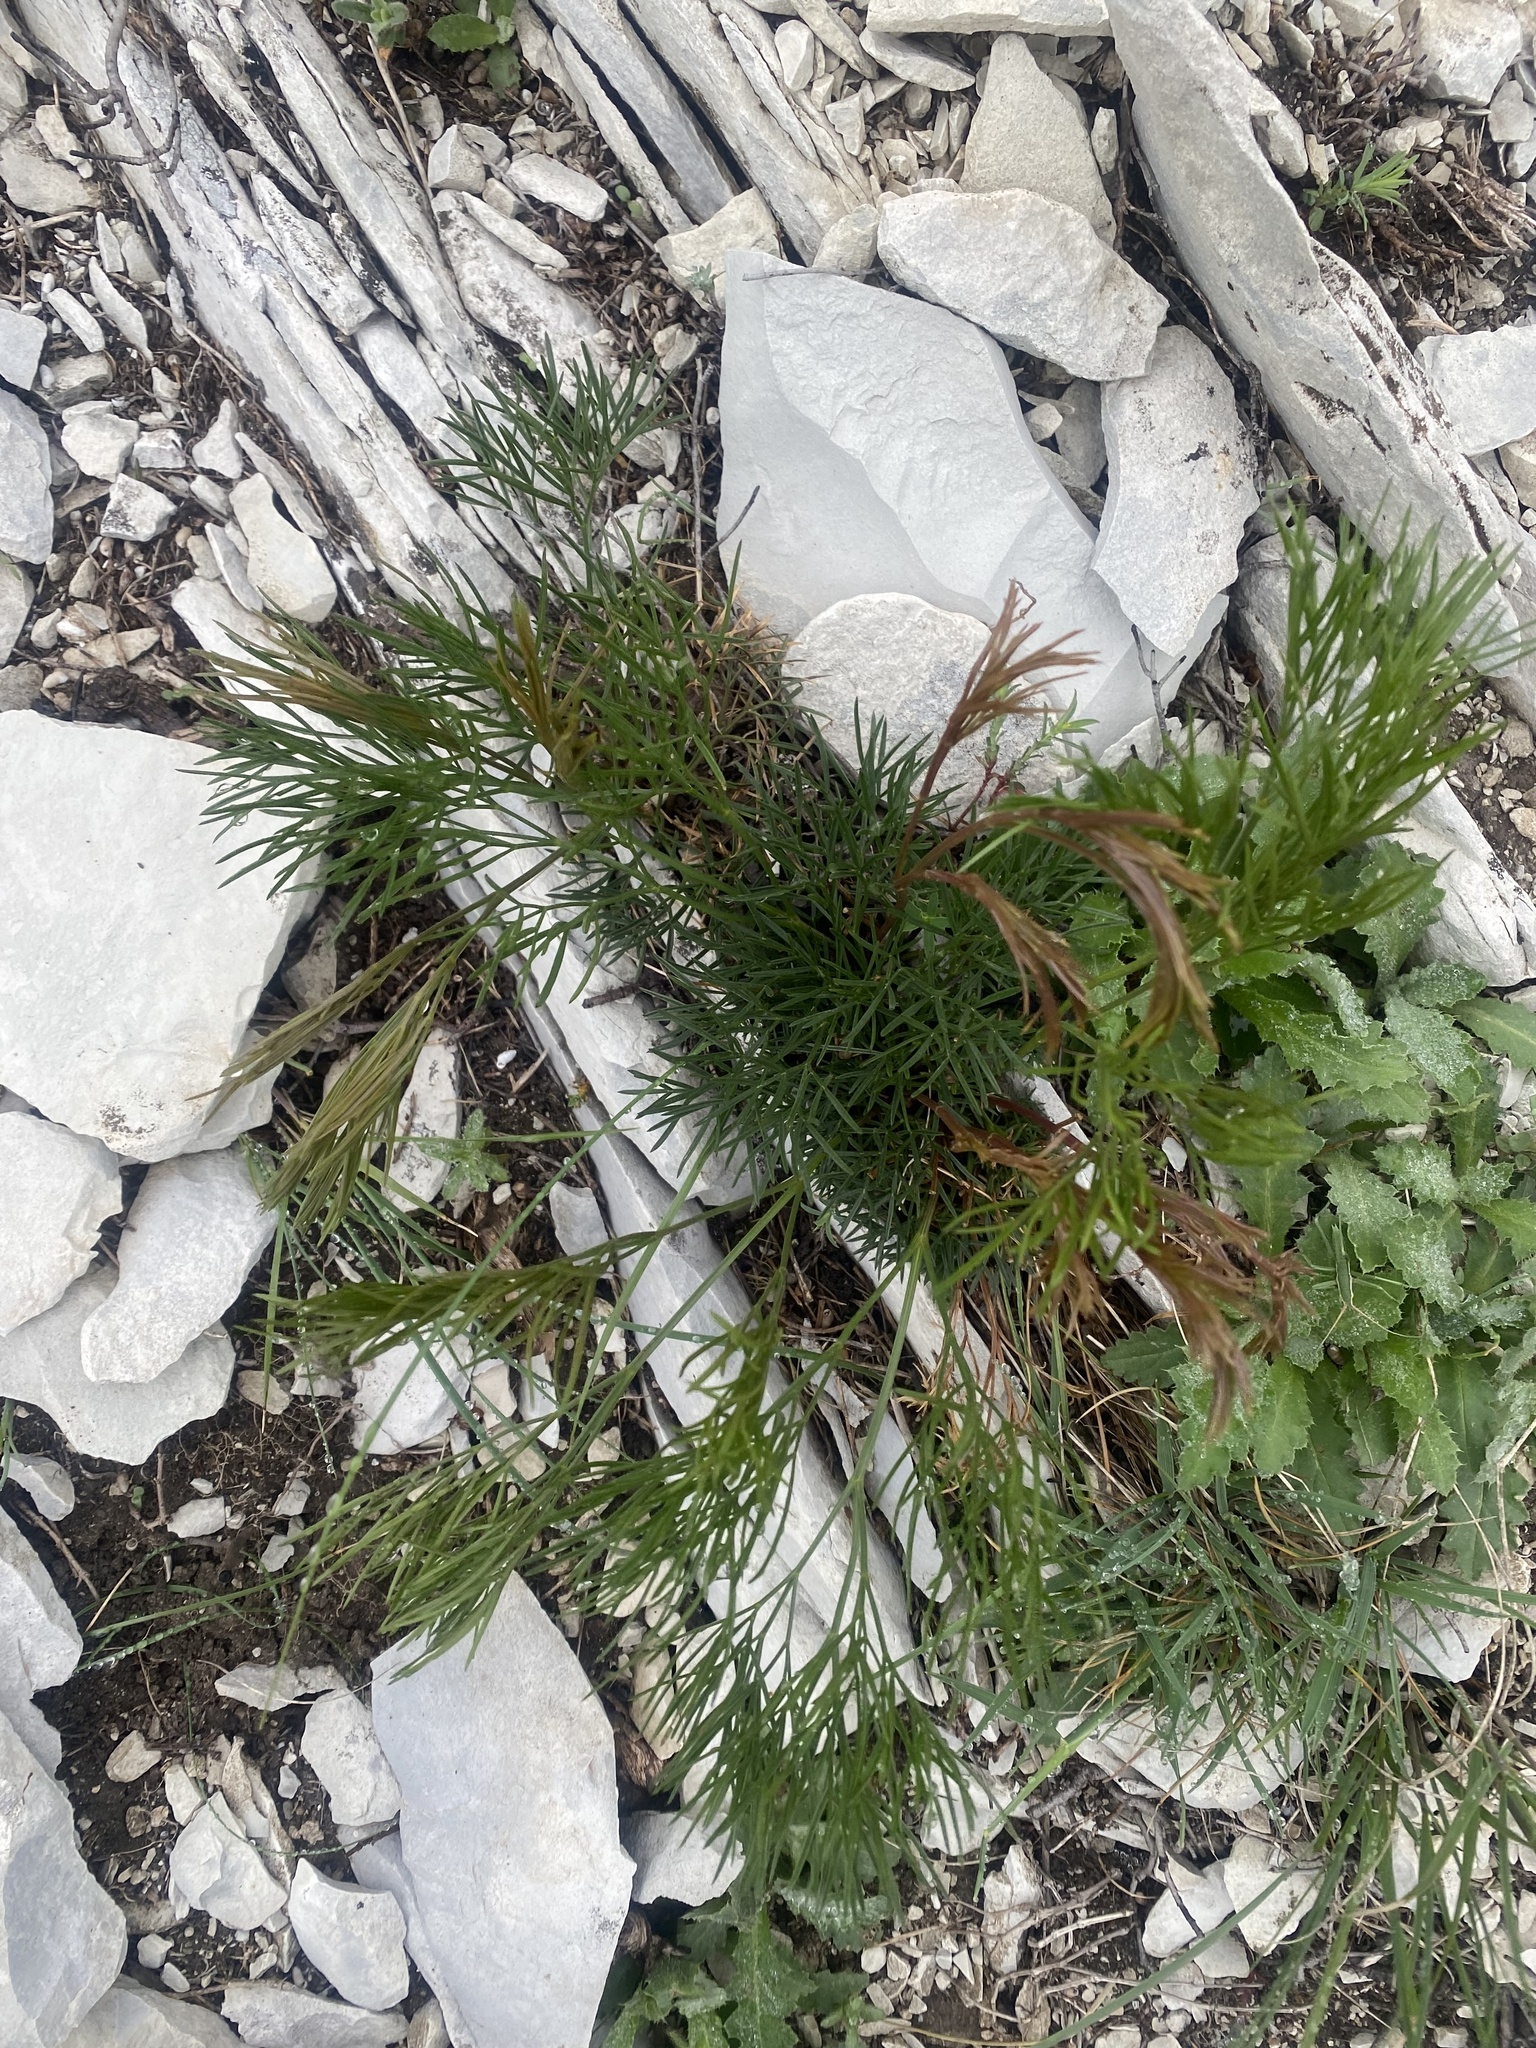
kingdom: Plantae
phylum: Tracheophyta
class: Magnoliopsida
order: Apiales
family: Apiaceae
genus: Seseli
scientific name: Seseli campestre
